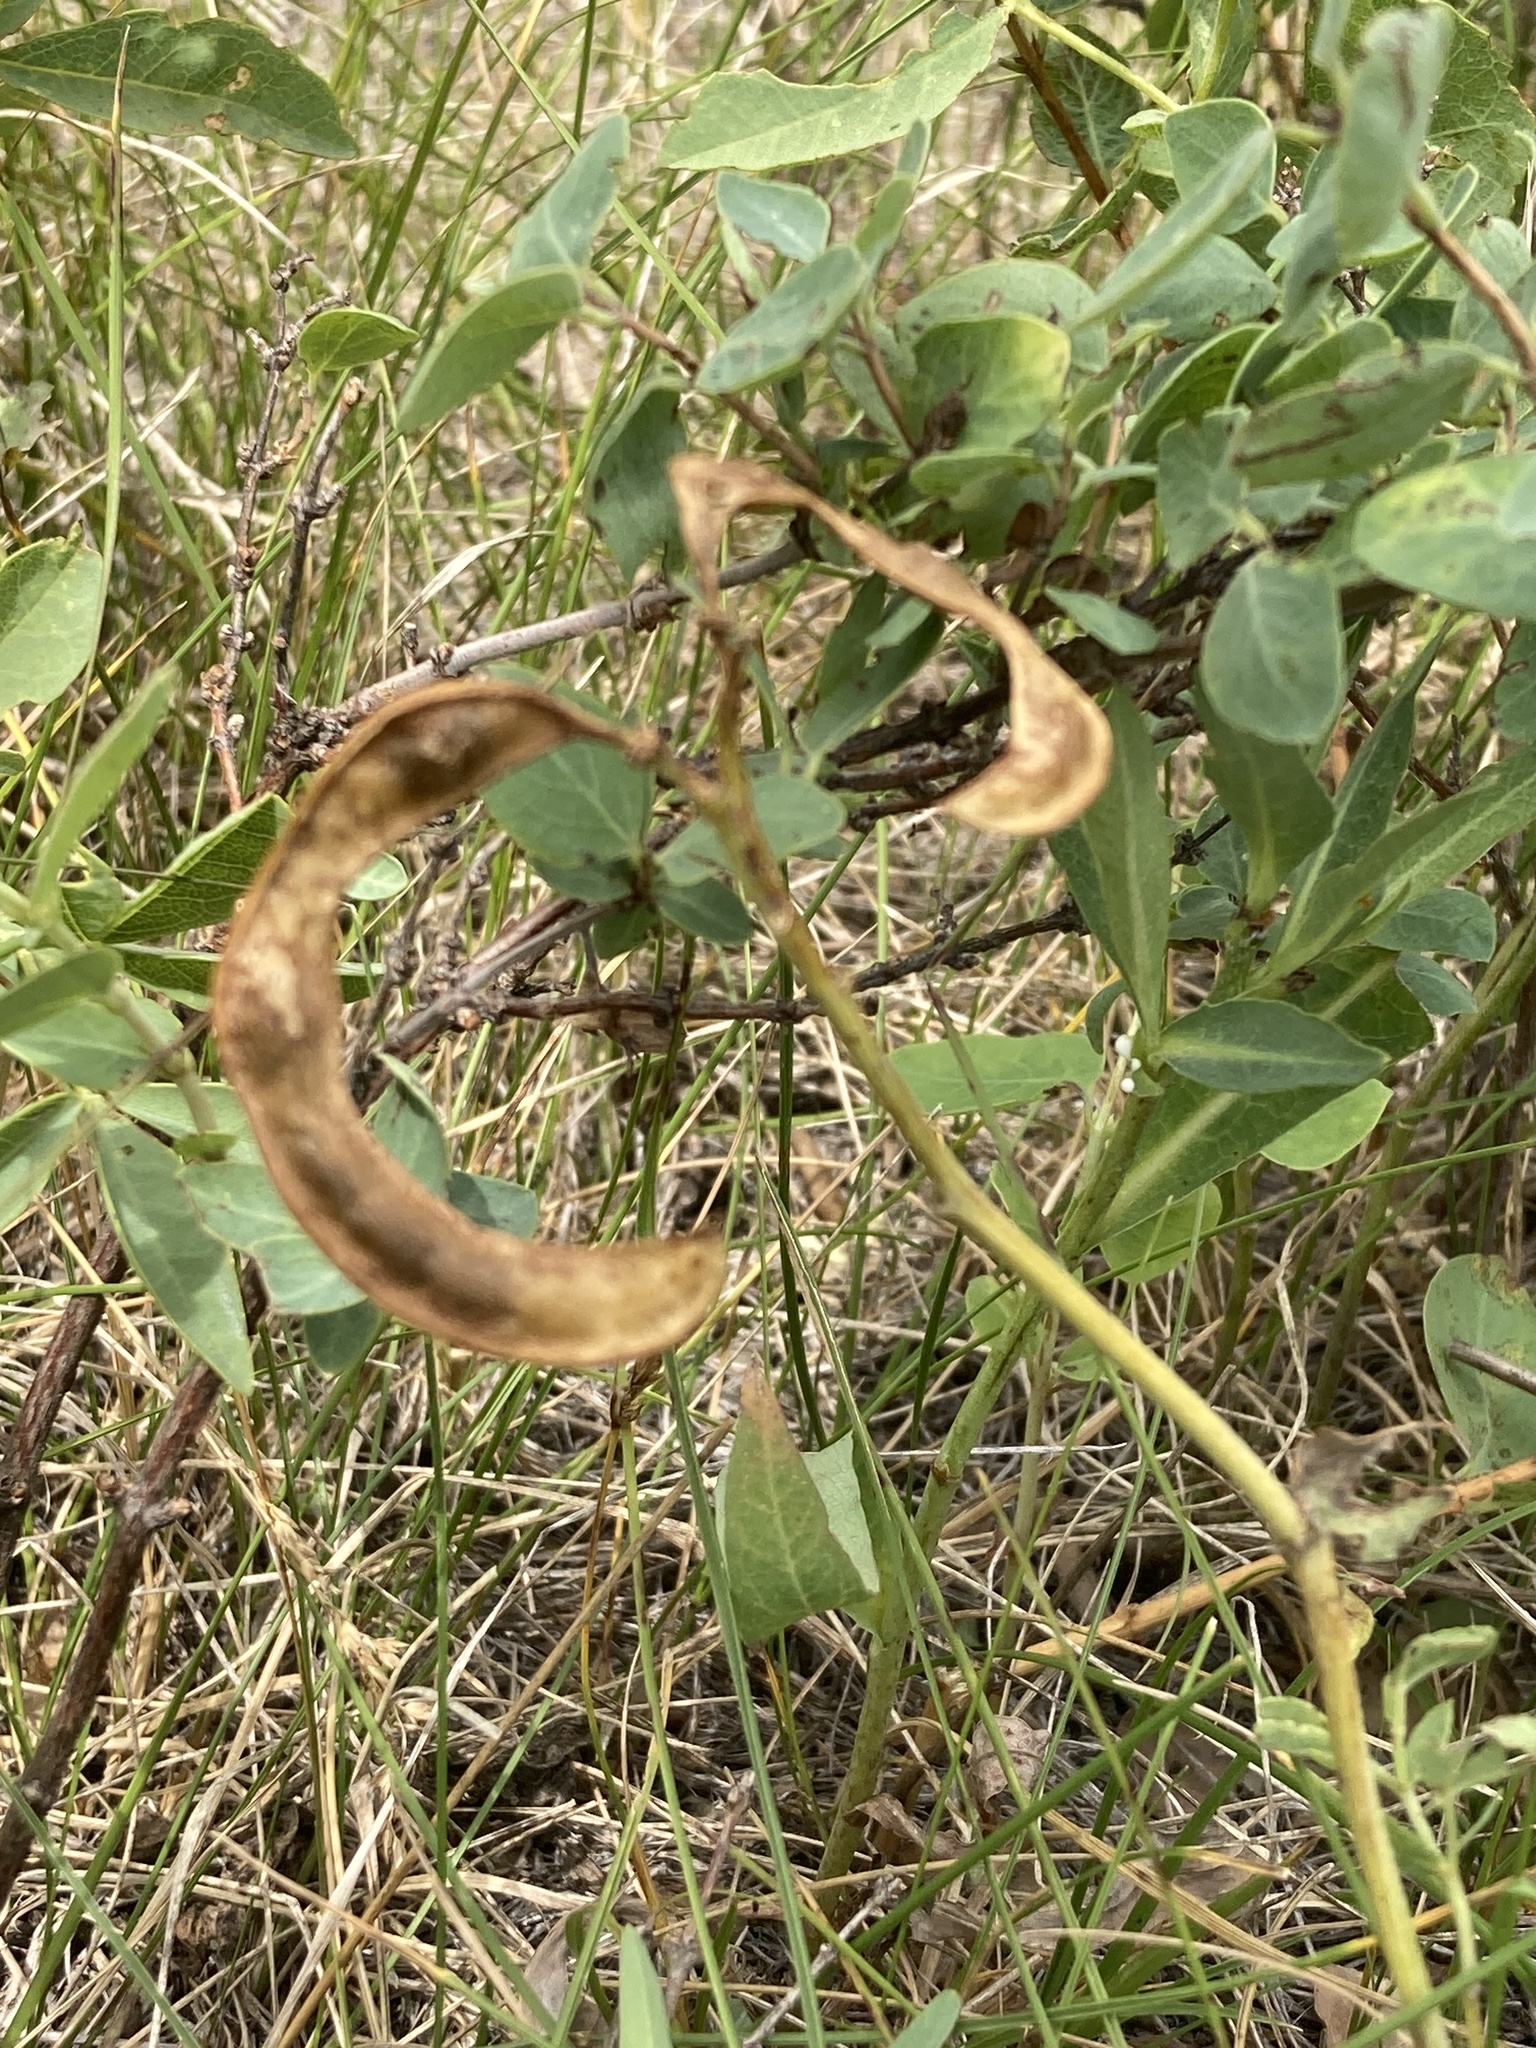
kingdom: Plantae
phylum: Tracheophyta
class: Magnoliopsida
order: Fabales
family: Fabaceae
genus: Thermopsis
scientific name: Thermopsis rhombifolia
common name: Circle-pod-pea
